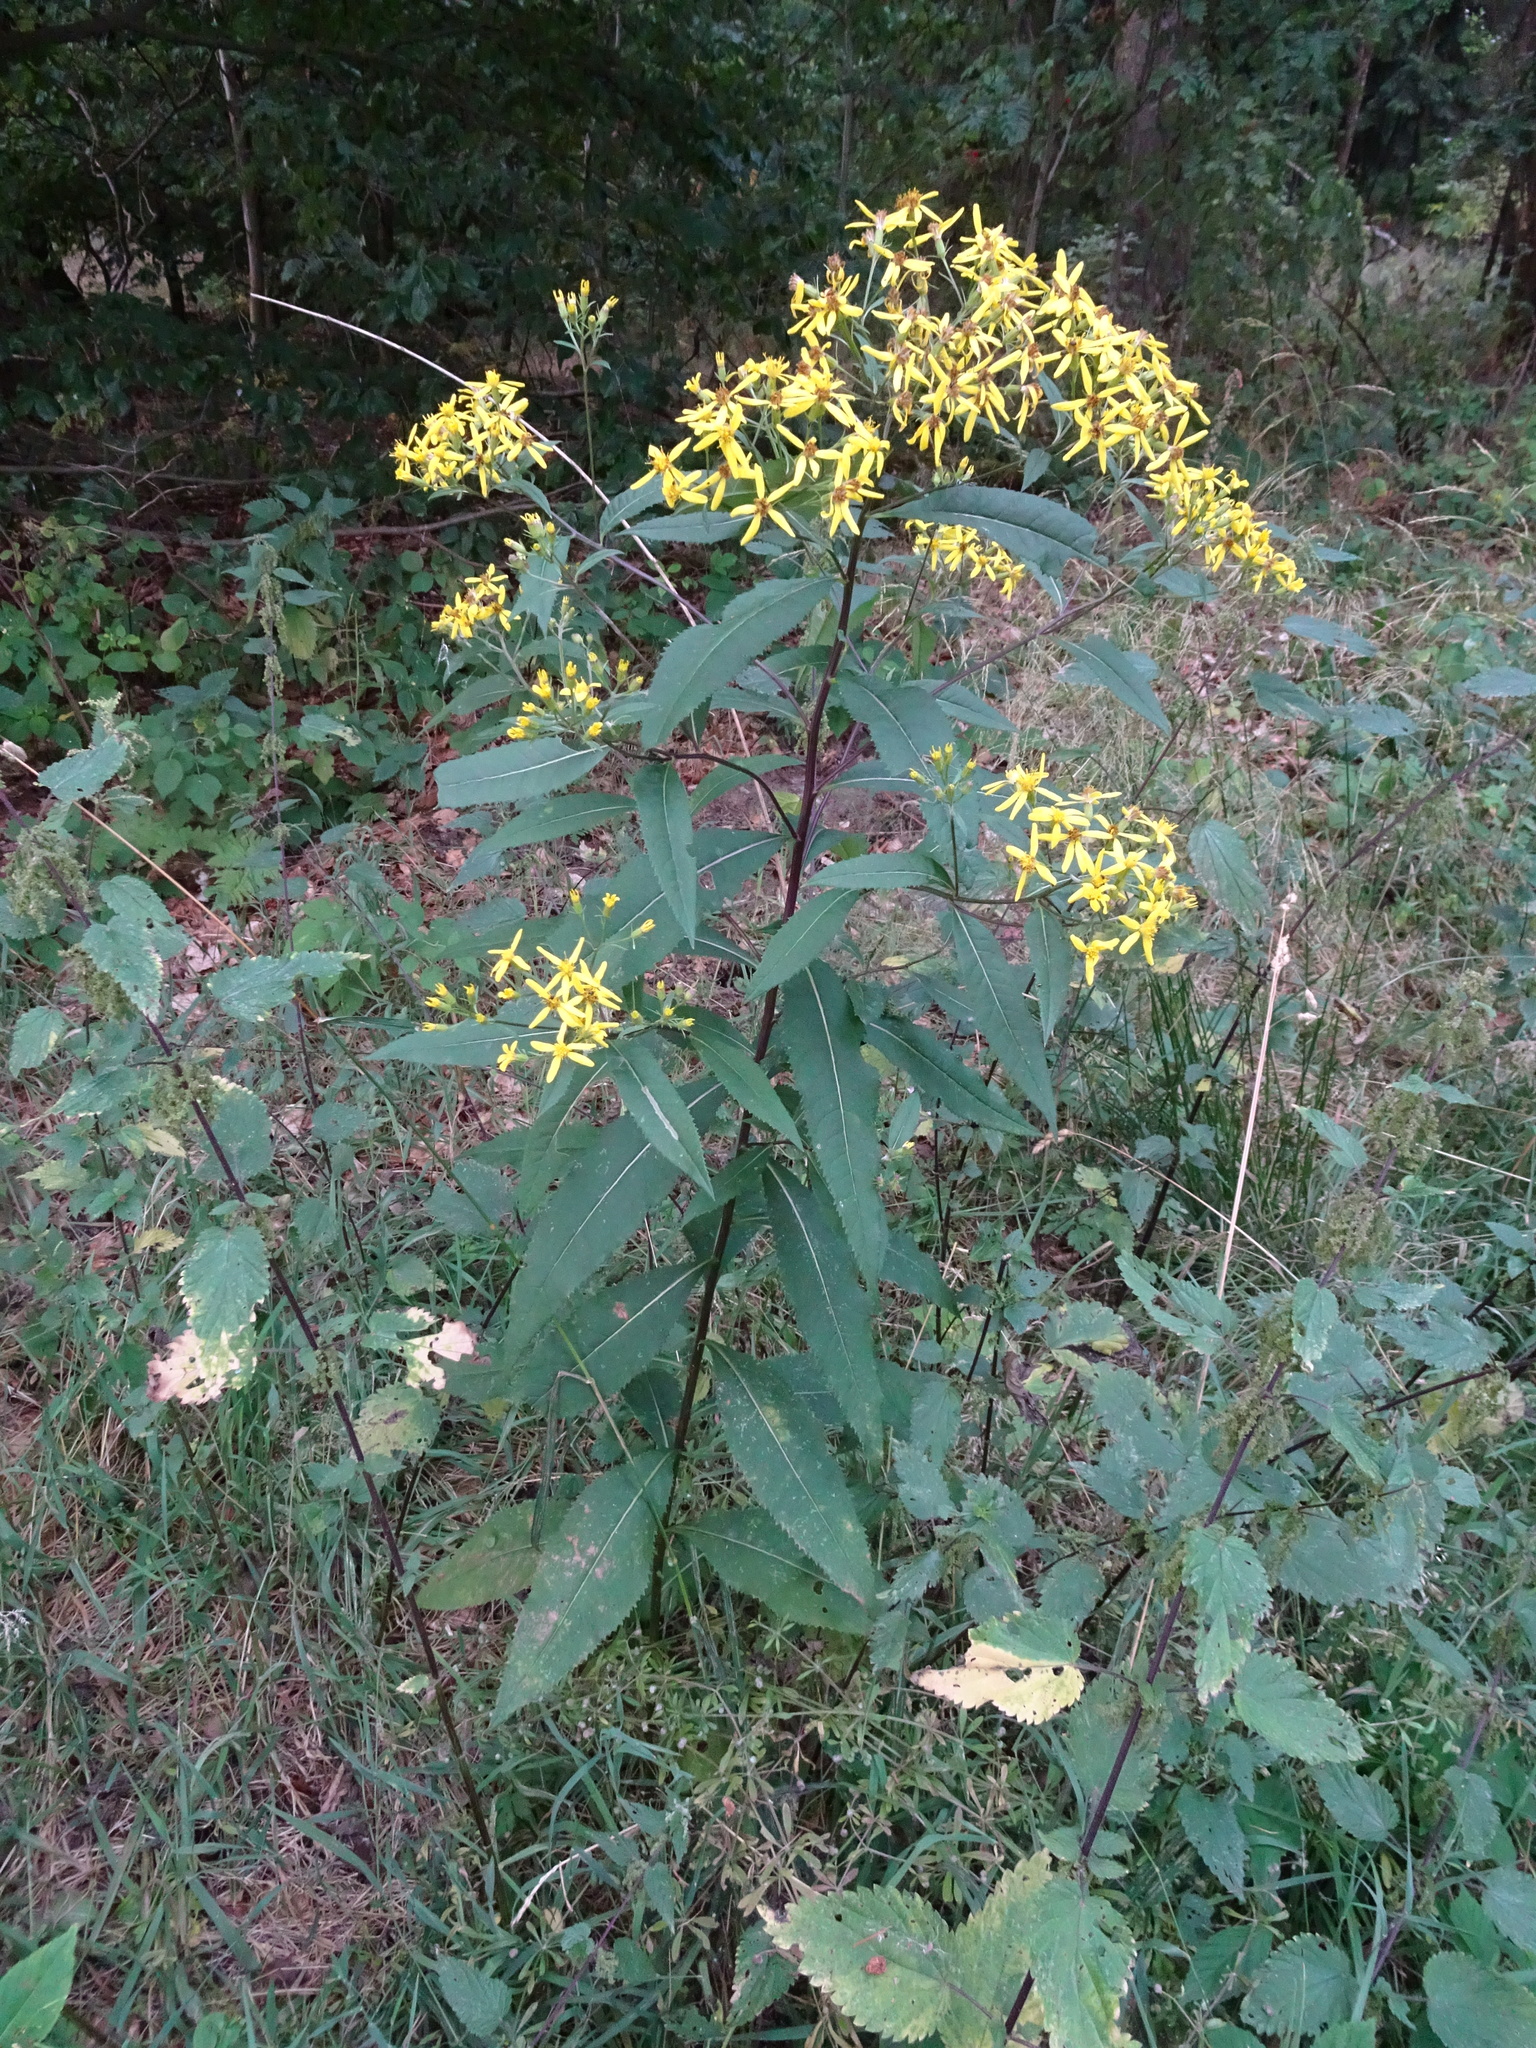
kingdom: Plantae
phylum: Tracheophyta
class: Magnoliopsida
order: Asterales
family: Asteraceae
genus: Senecio
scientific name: Senecio ovatus
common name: Wood ragwort
